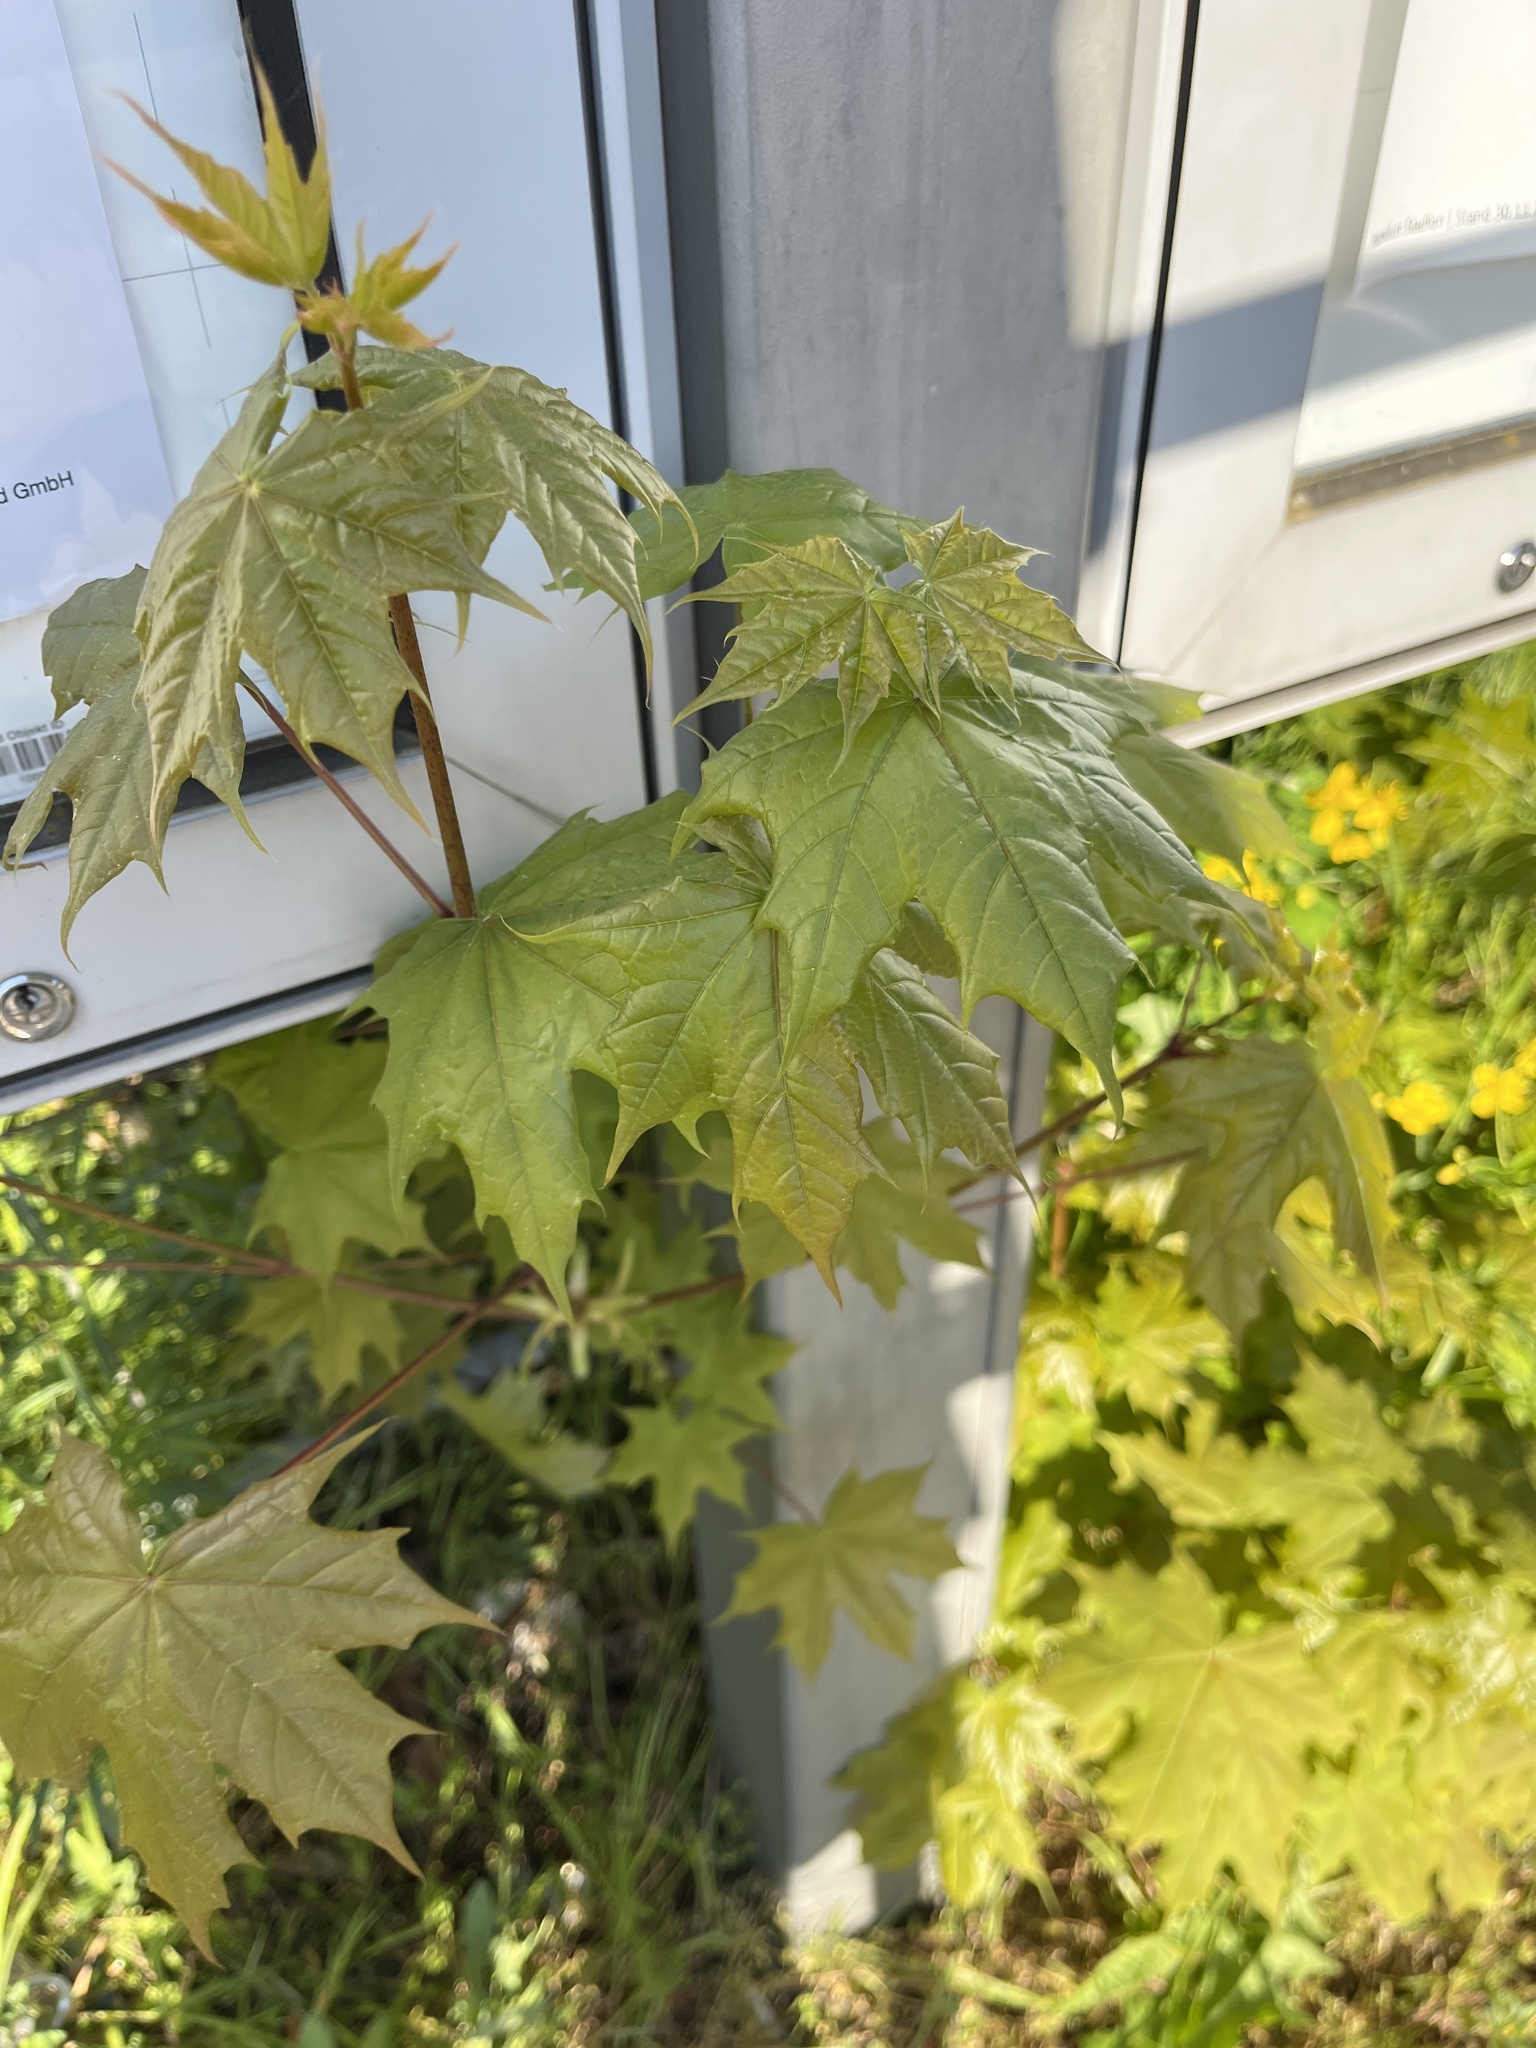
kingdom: Plantae
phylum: Tracheophyta
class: Magnoliopsida
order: Sapindales
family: Sapindaceae
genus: Acer
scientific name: Acer platanoides
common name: Norway maple
